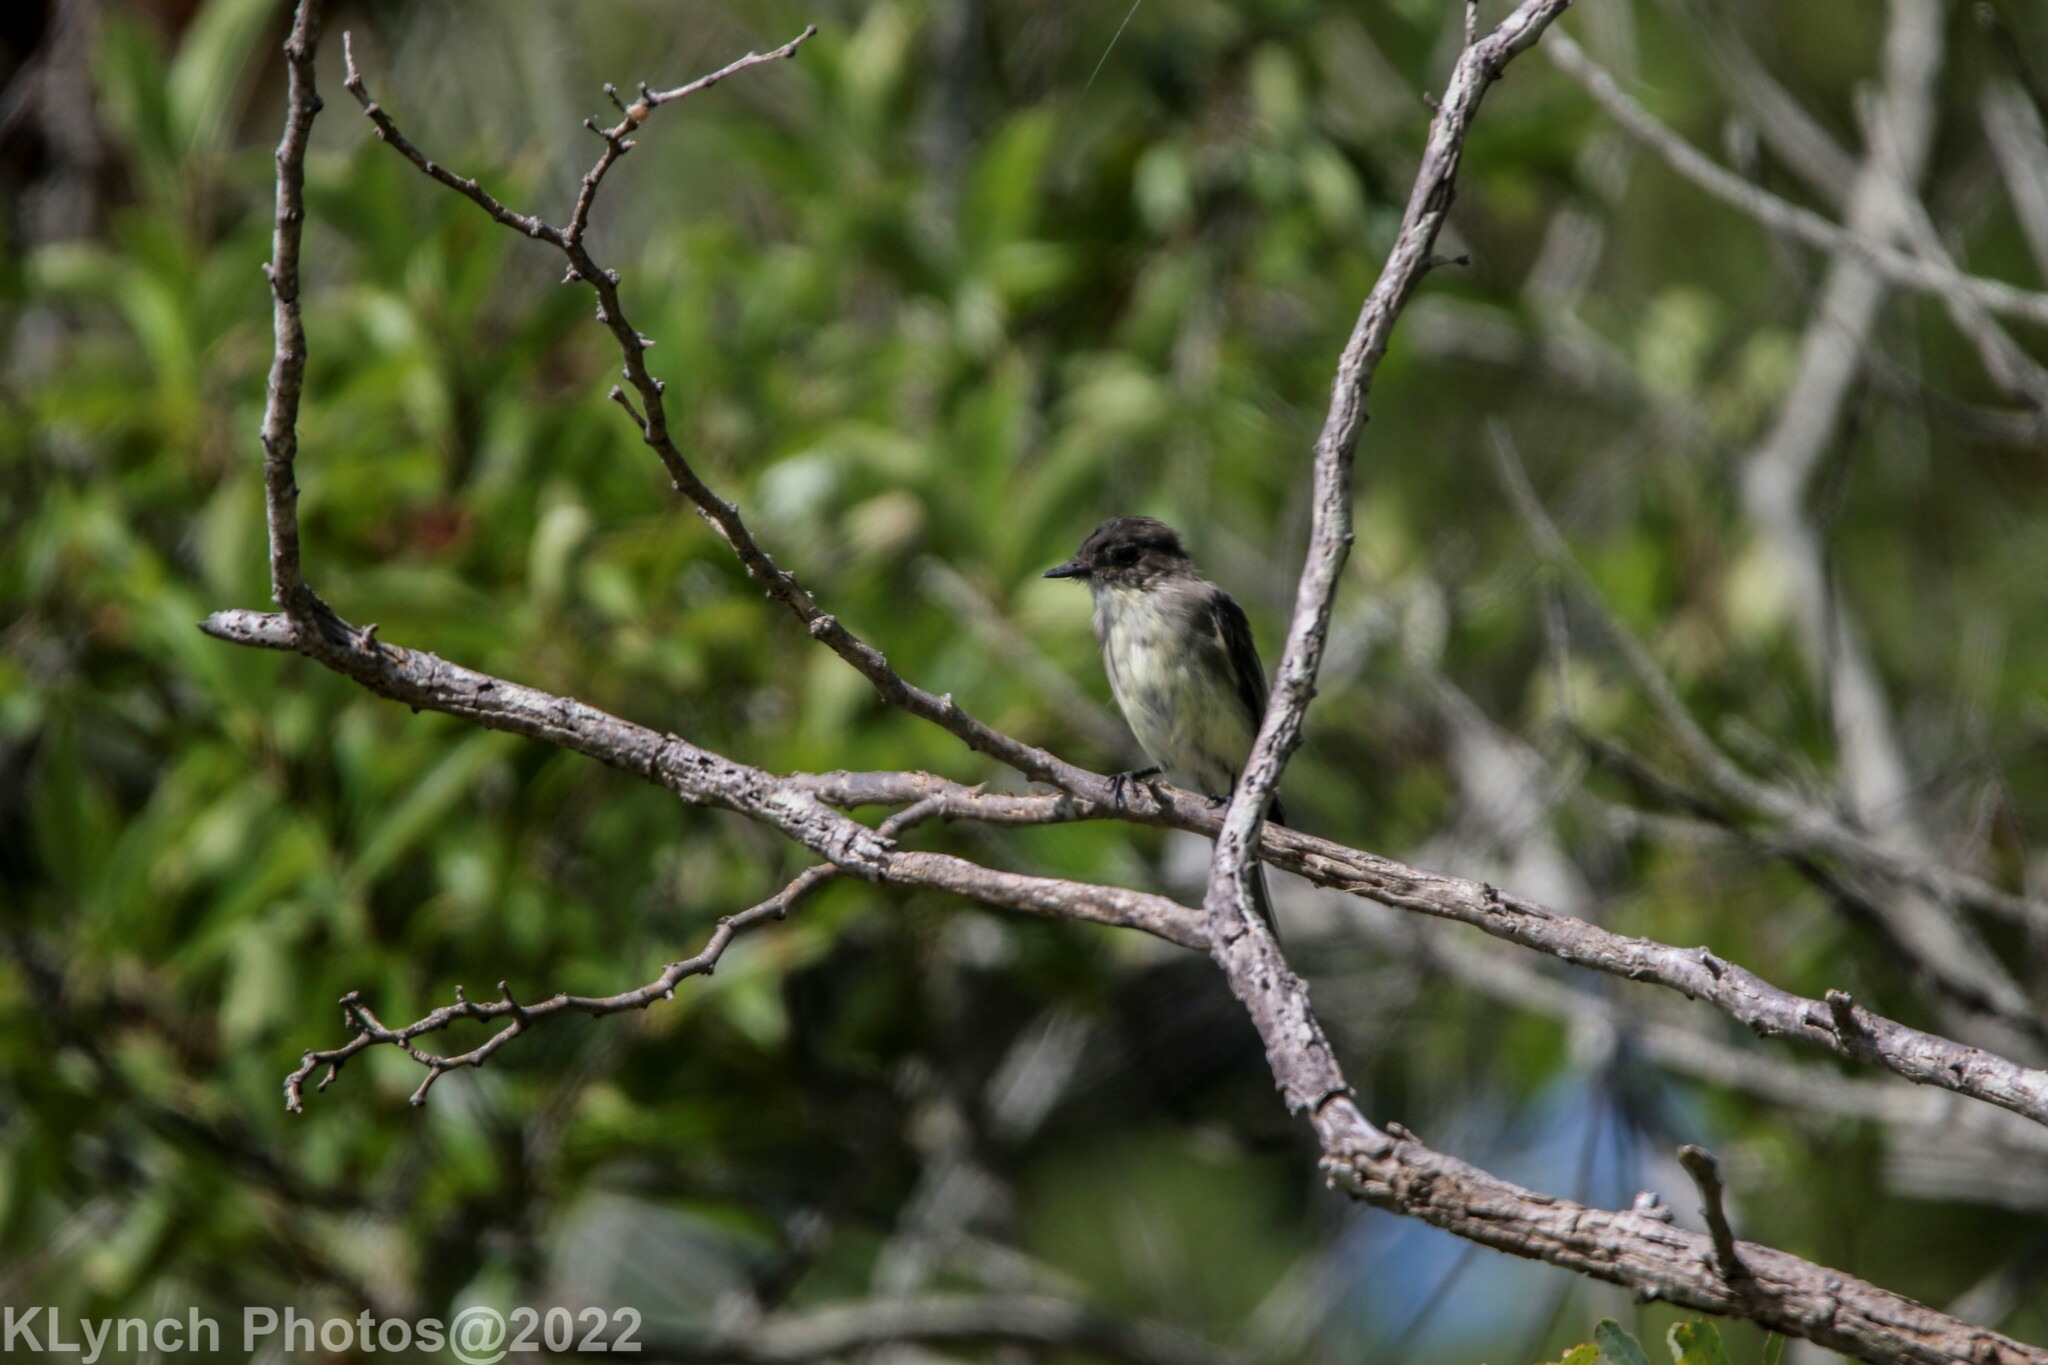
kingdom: Animalia
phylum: Chordata
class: Aves
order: Passeriformes
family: Tyrannidae
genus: Sayornis
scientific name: Sayornis phoebe
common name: Eastern phoebe
